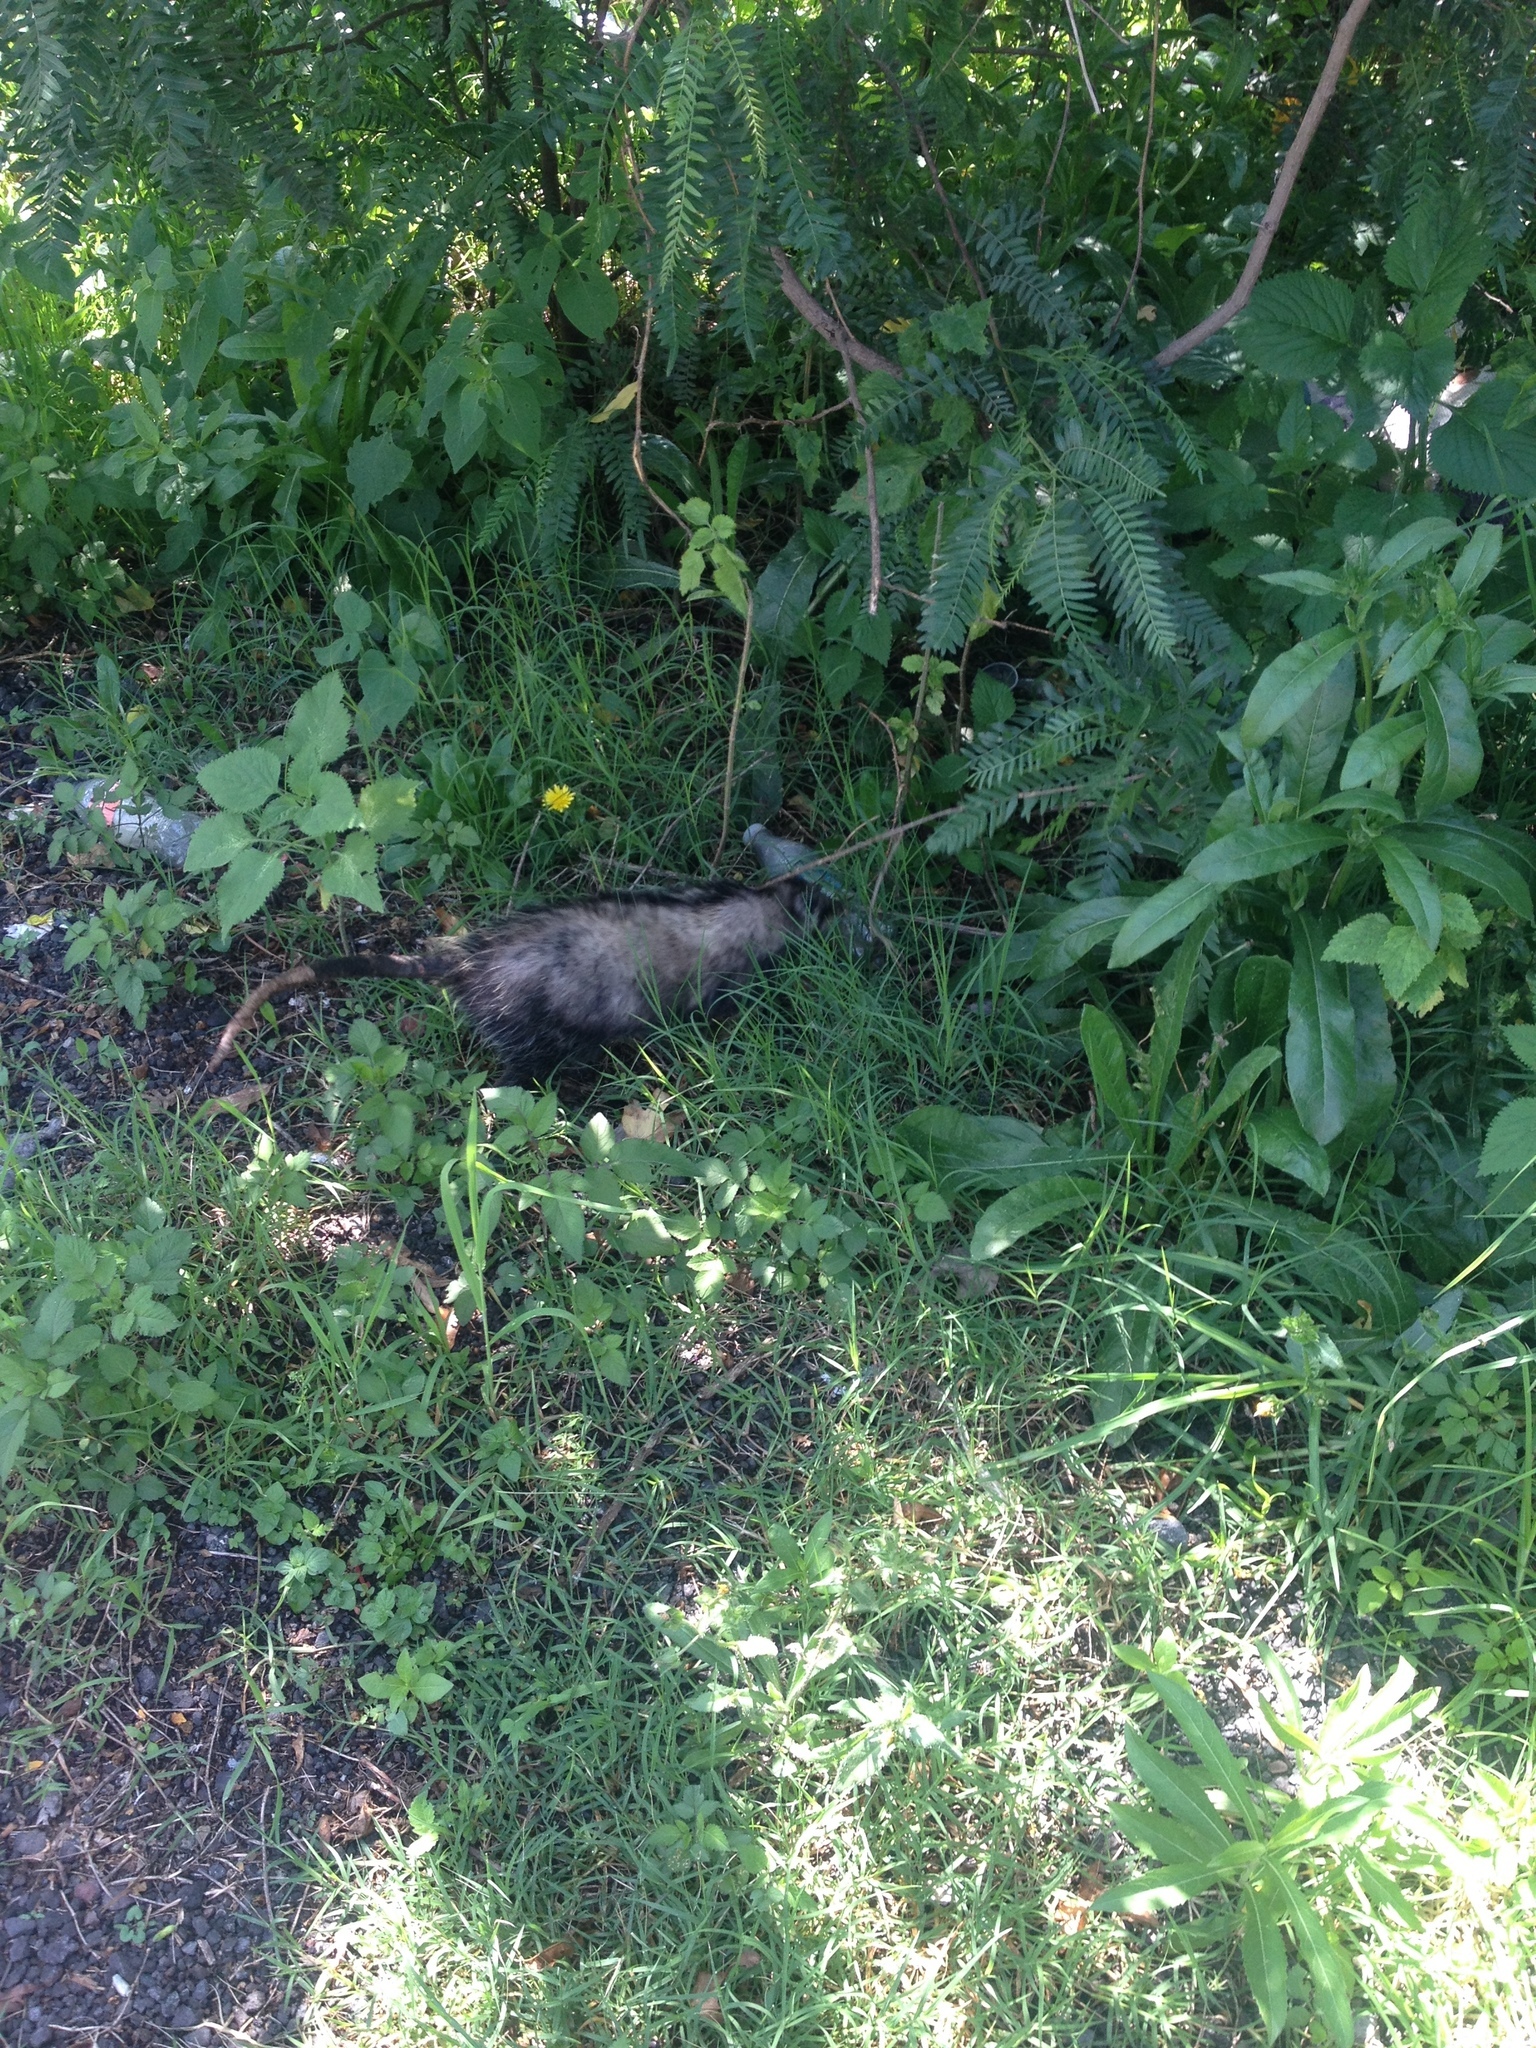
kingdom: Animalia
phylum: Chordata
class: Mammalia
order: Didelphimorphia
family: Didelphidae
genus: Didelphis
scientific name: Didelphis virginiana
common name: Virginia opossum
